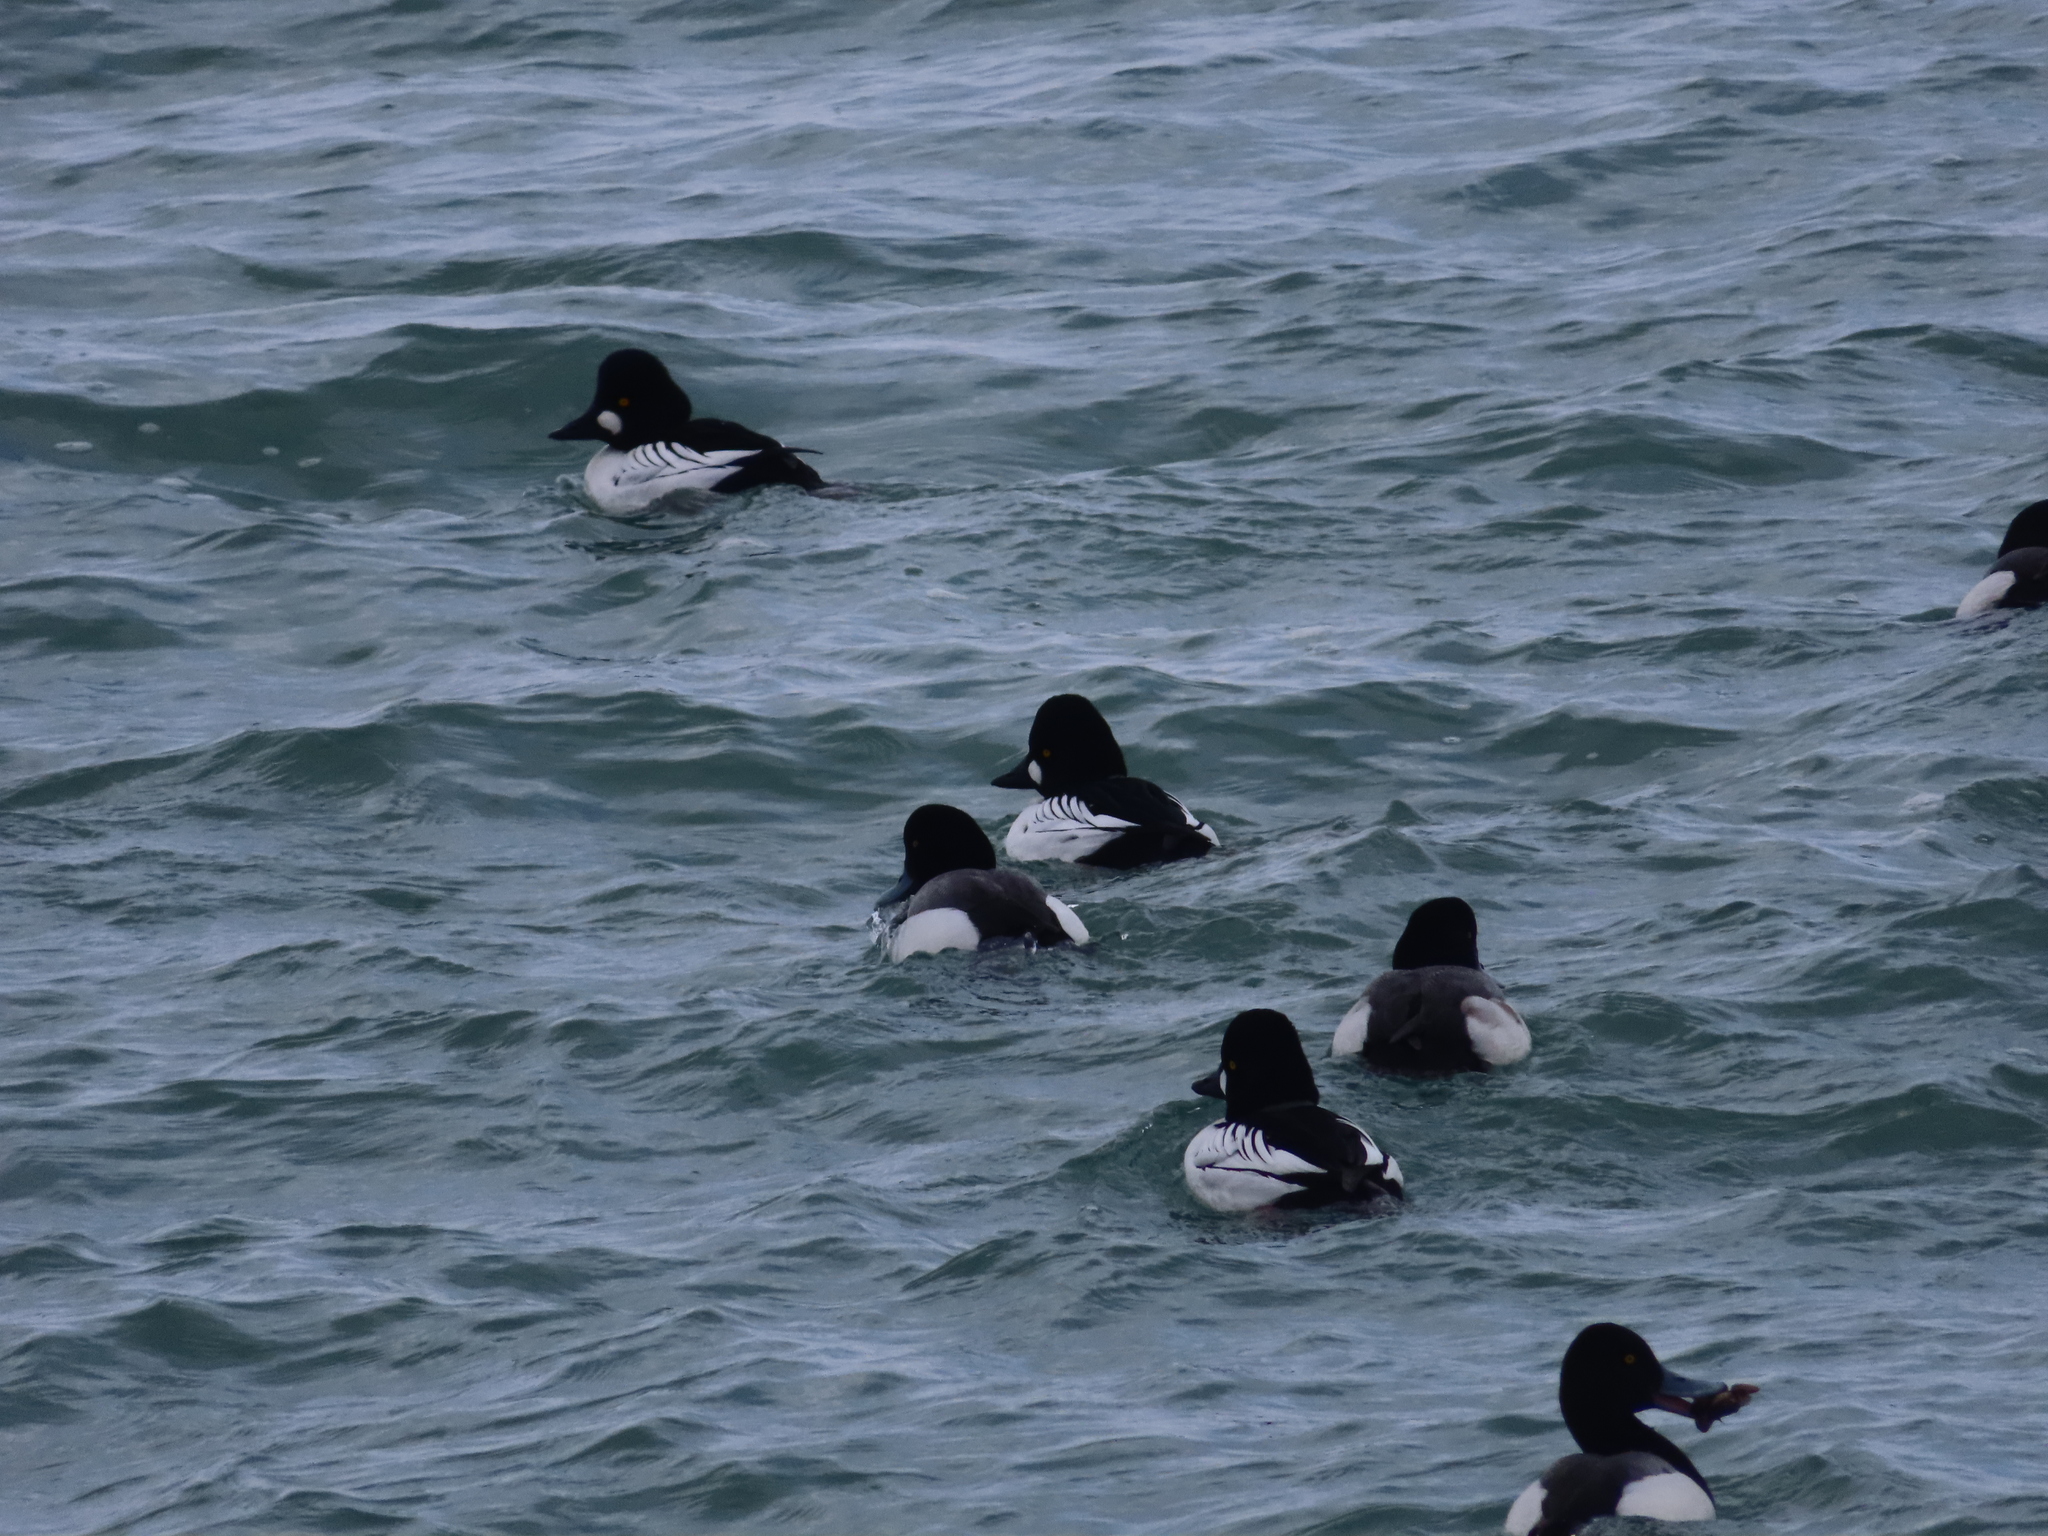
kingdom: Animalia
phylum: Chordata
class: Aves
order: Anseriformes
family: Anatidae
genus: Bucephala
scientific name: Bucephala clangula
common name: Common goldeneye
